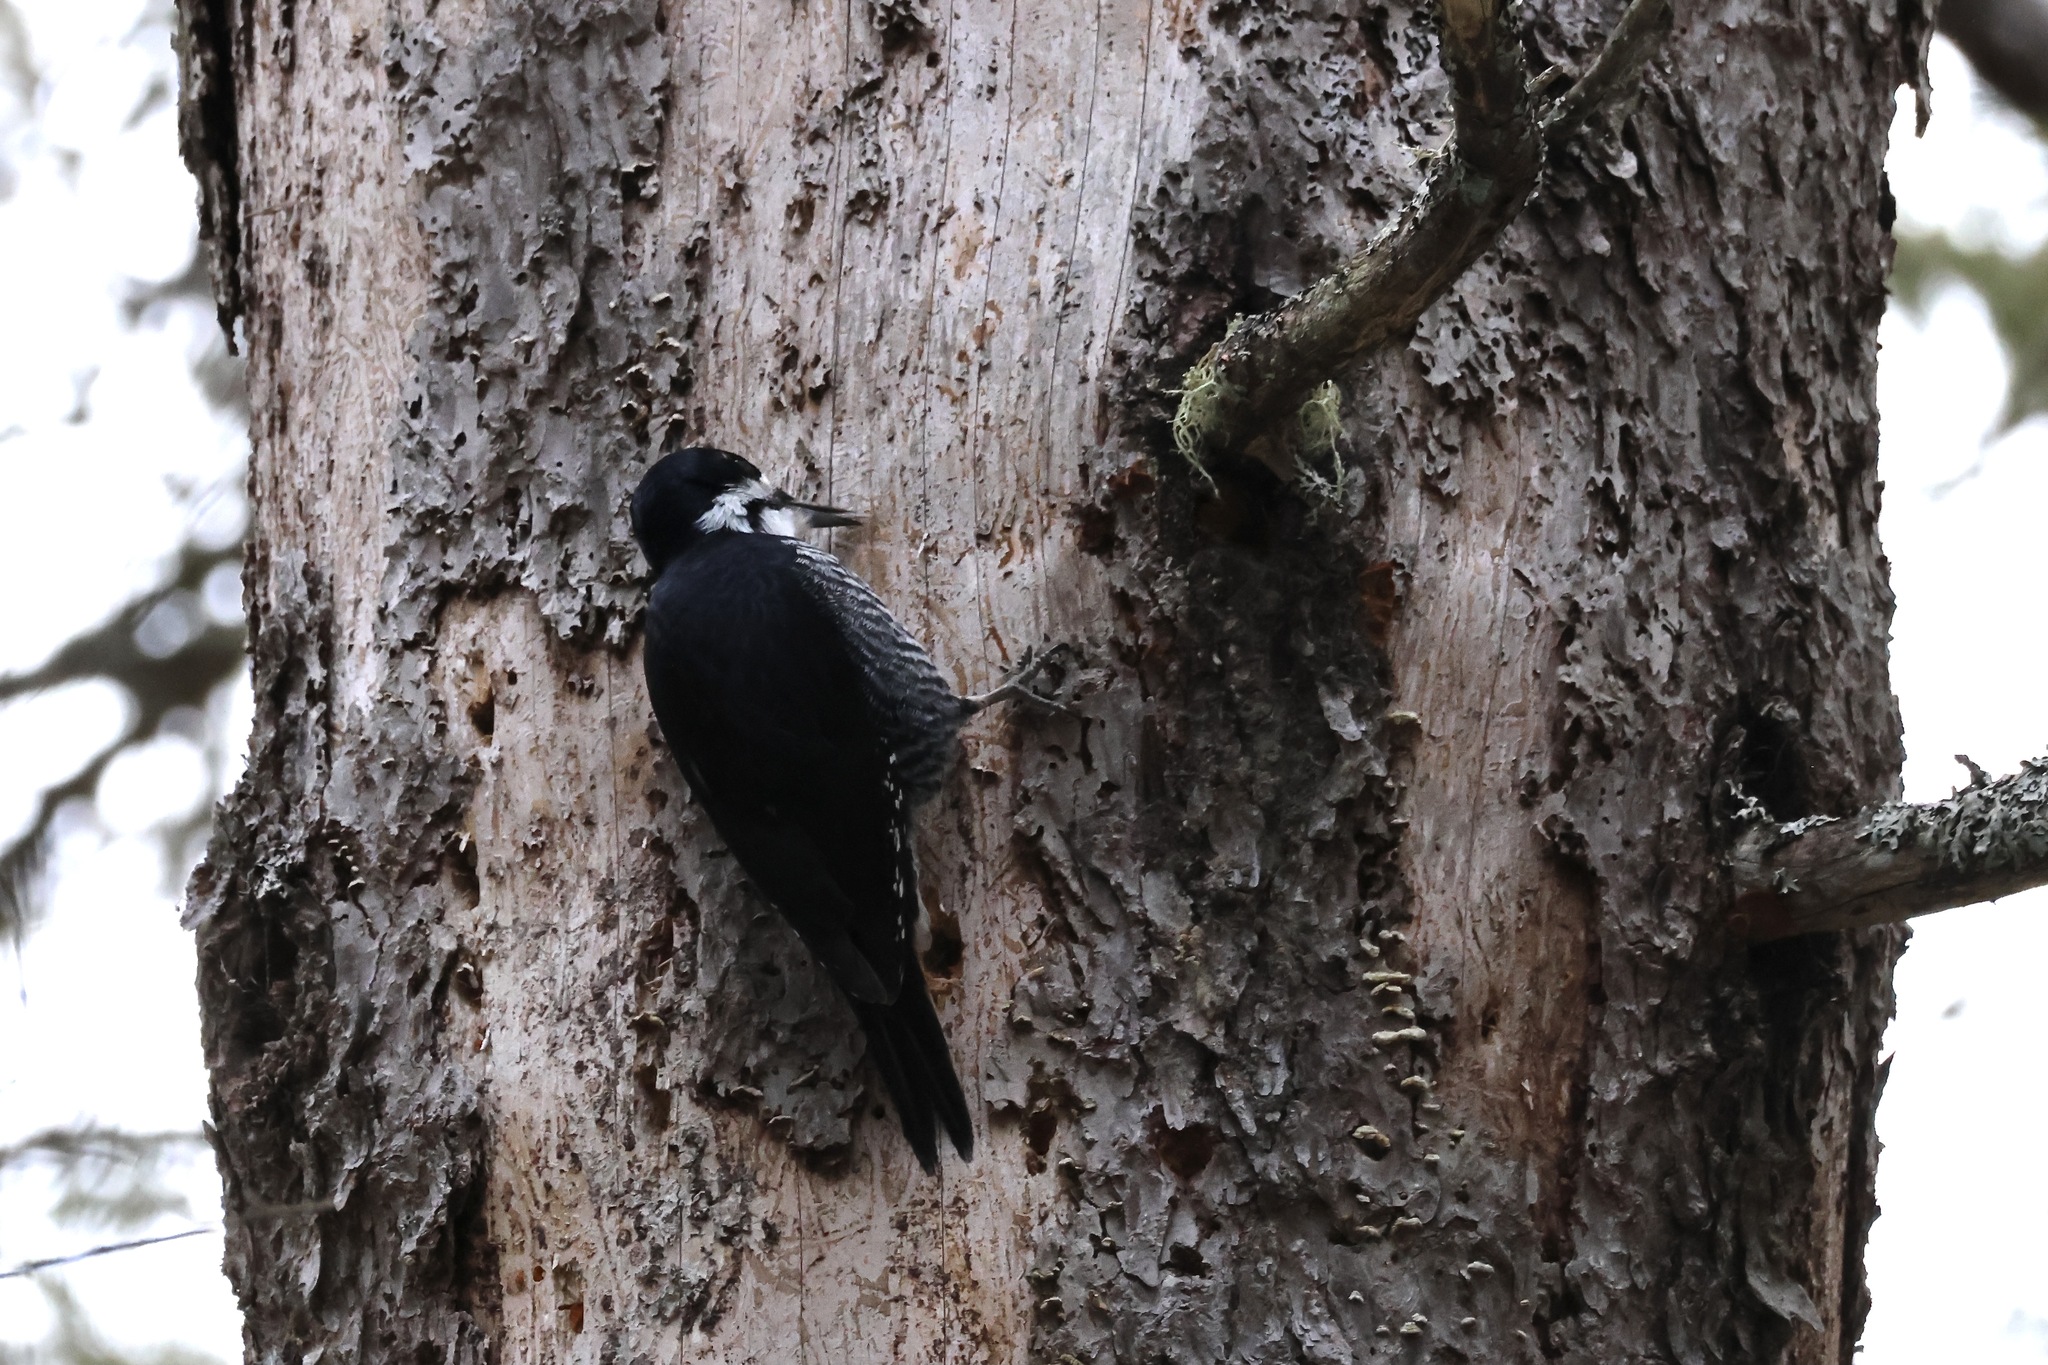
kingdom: Animalia
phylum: Chordata
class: Aves
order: Piciformes
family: Picidae
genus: Picoides
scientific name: Picoides arcticus
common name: Black-backed woodpecker
